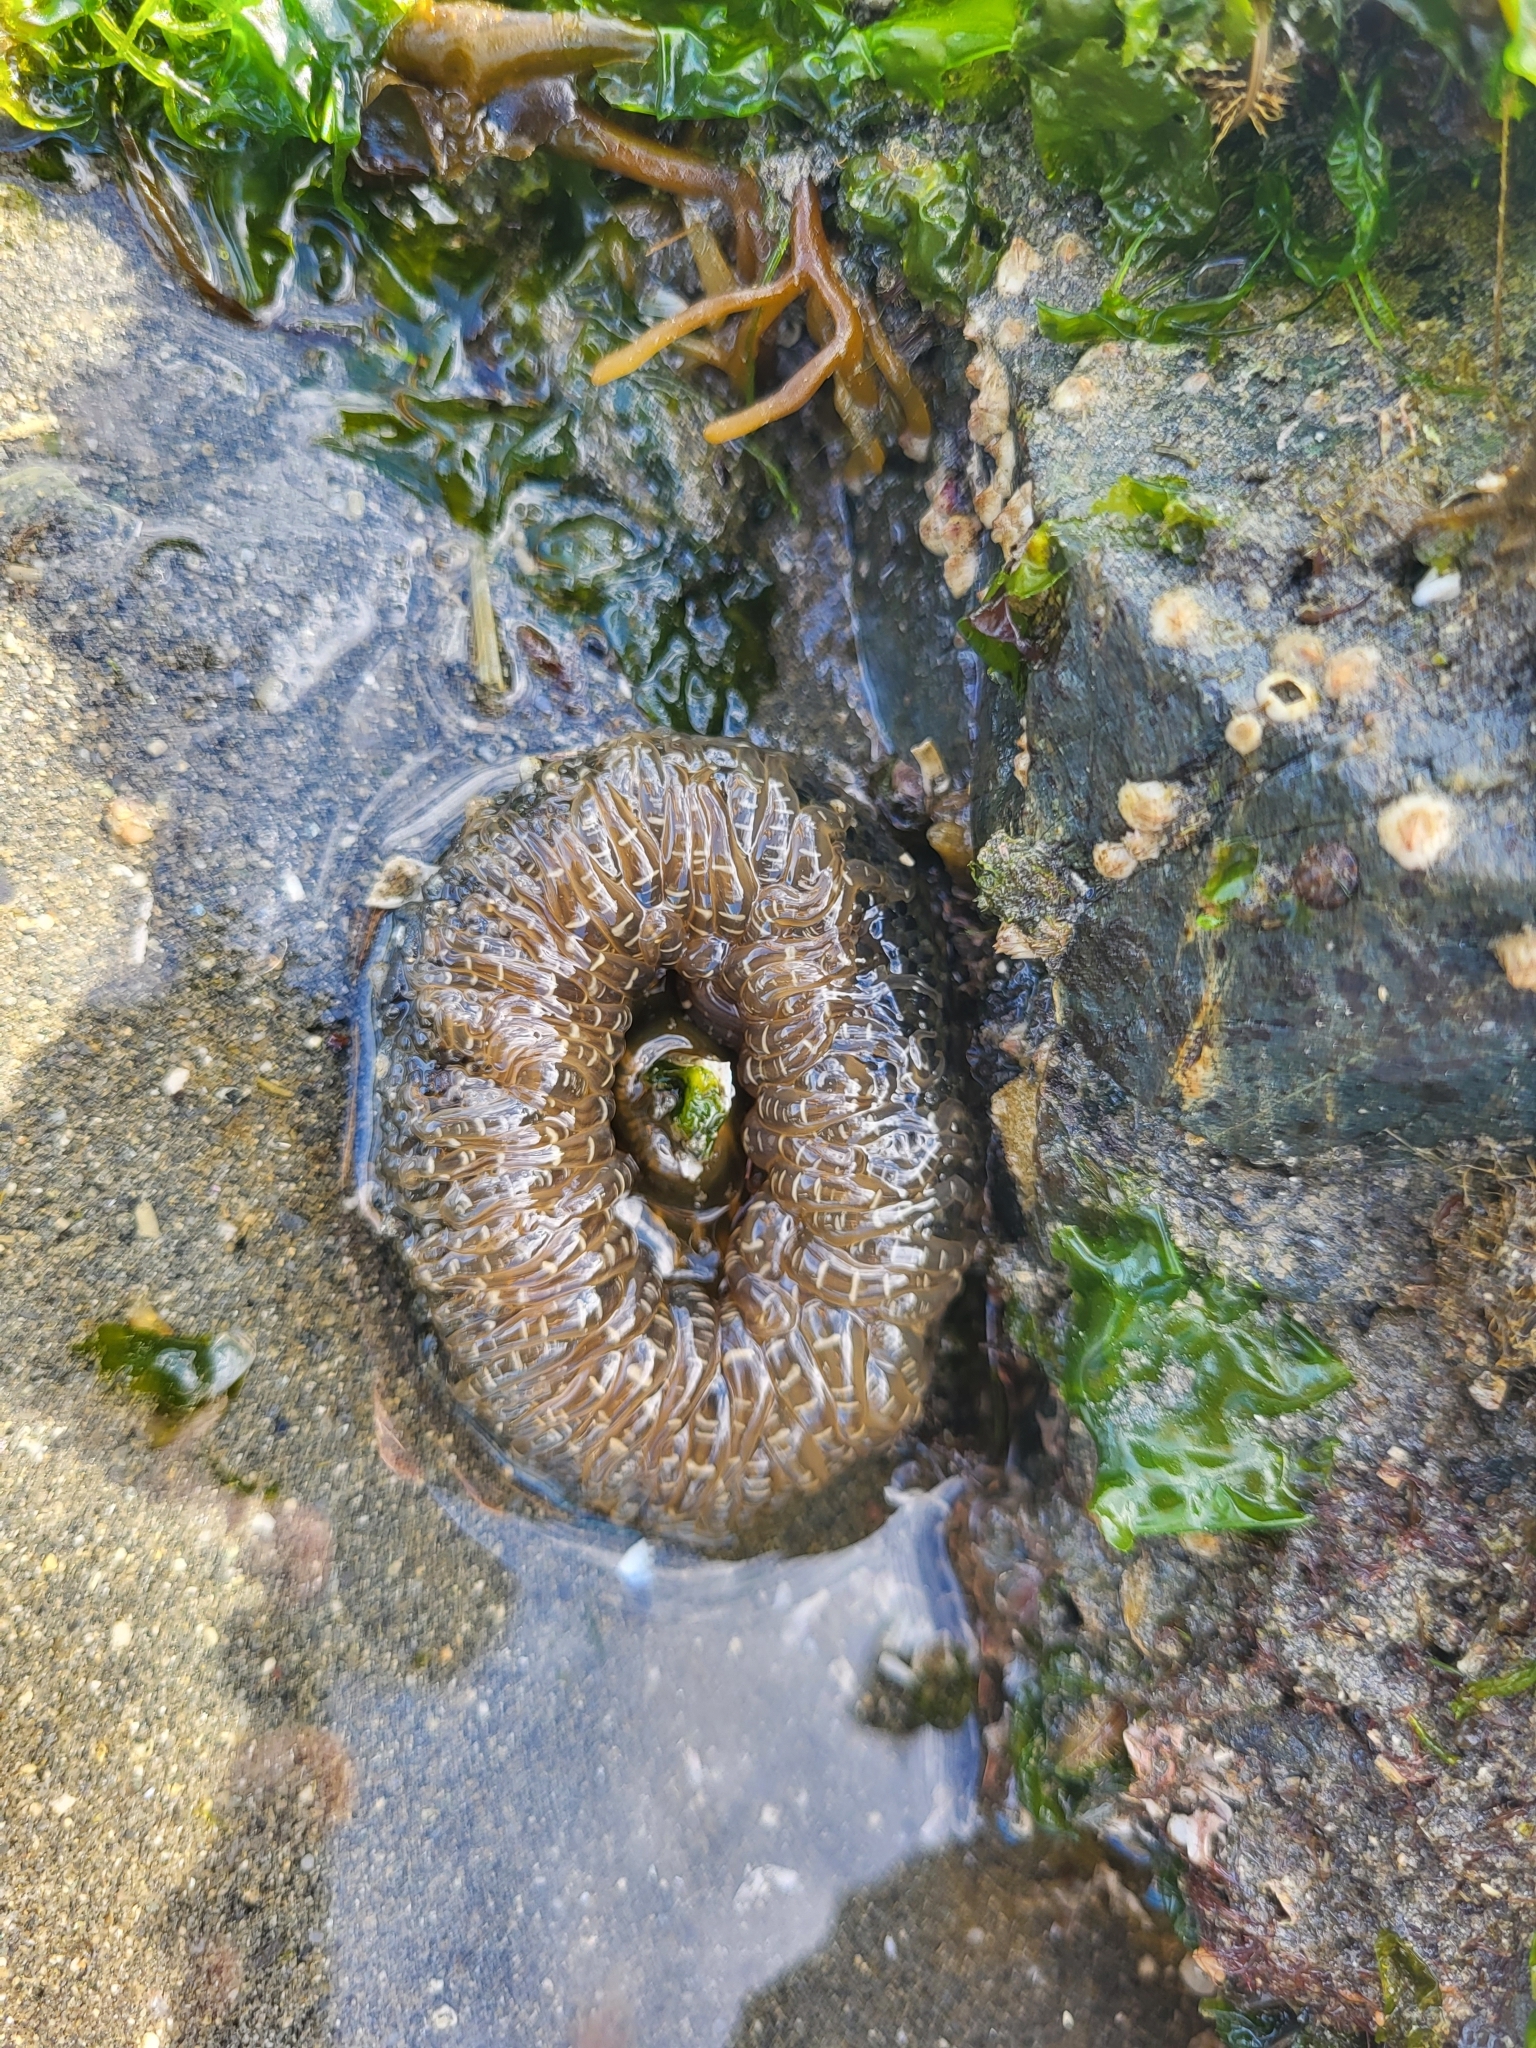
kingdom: Animalia
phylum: Cnidaria
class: Anthozoa
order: Actiniaria
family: Actiniidae
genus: Anthopleura
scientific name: Anthopleura artemisia
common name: Buried sea anemone
